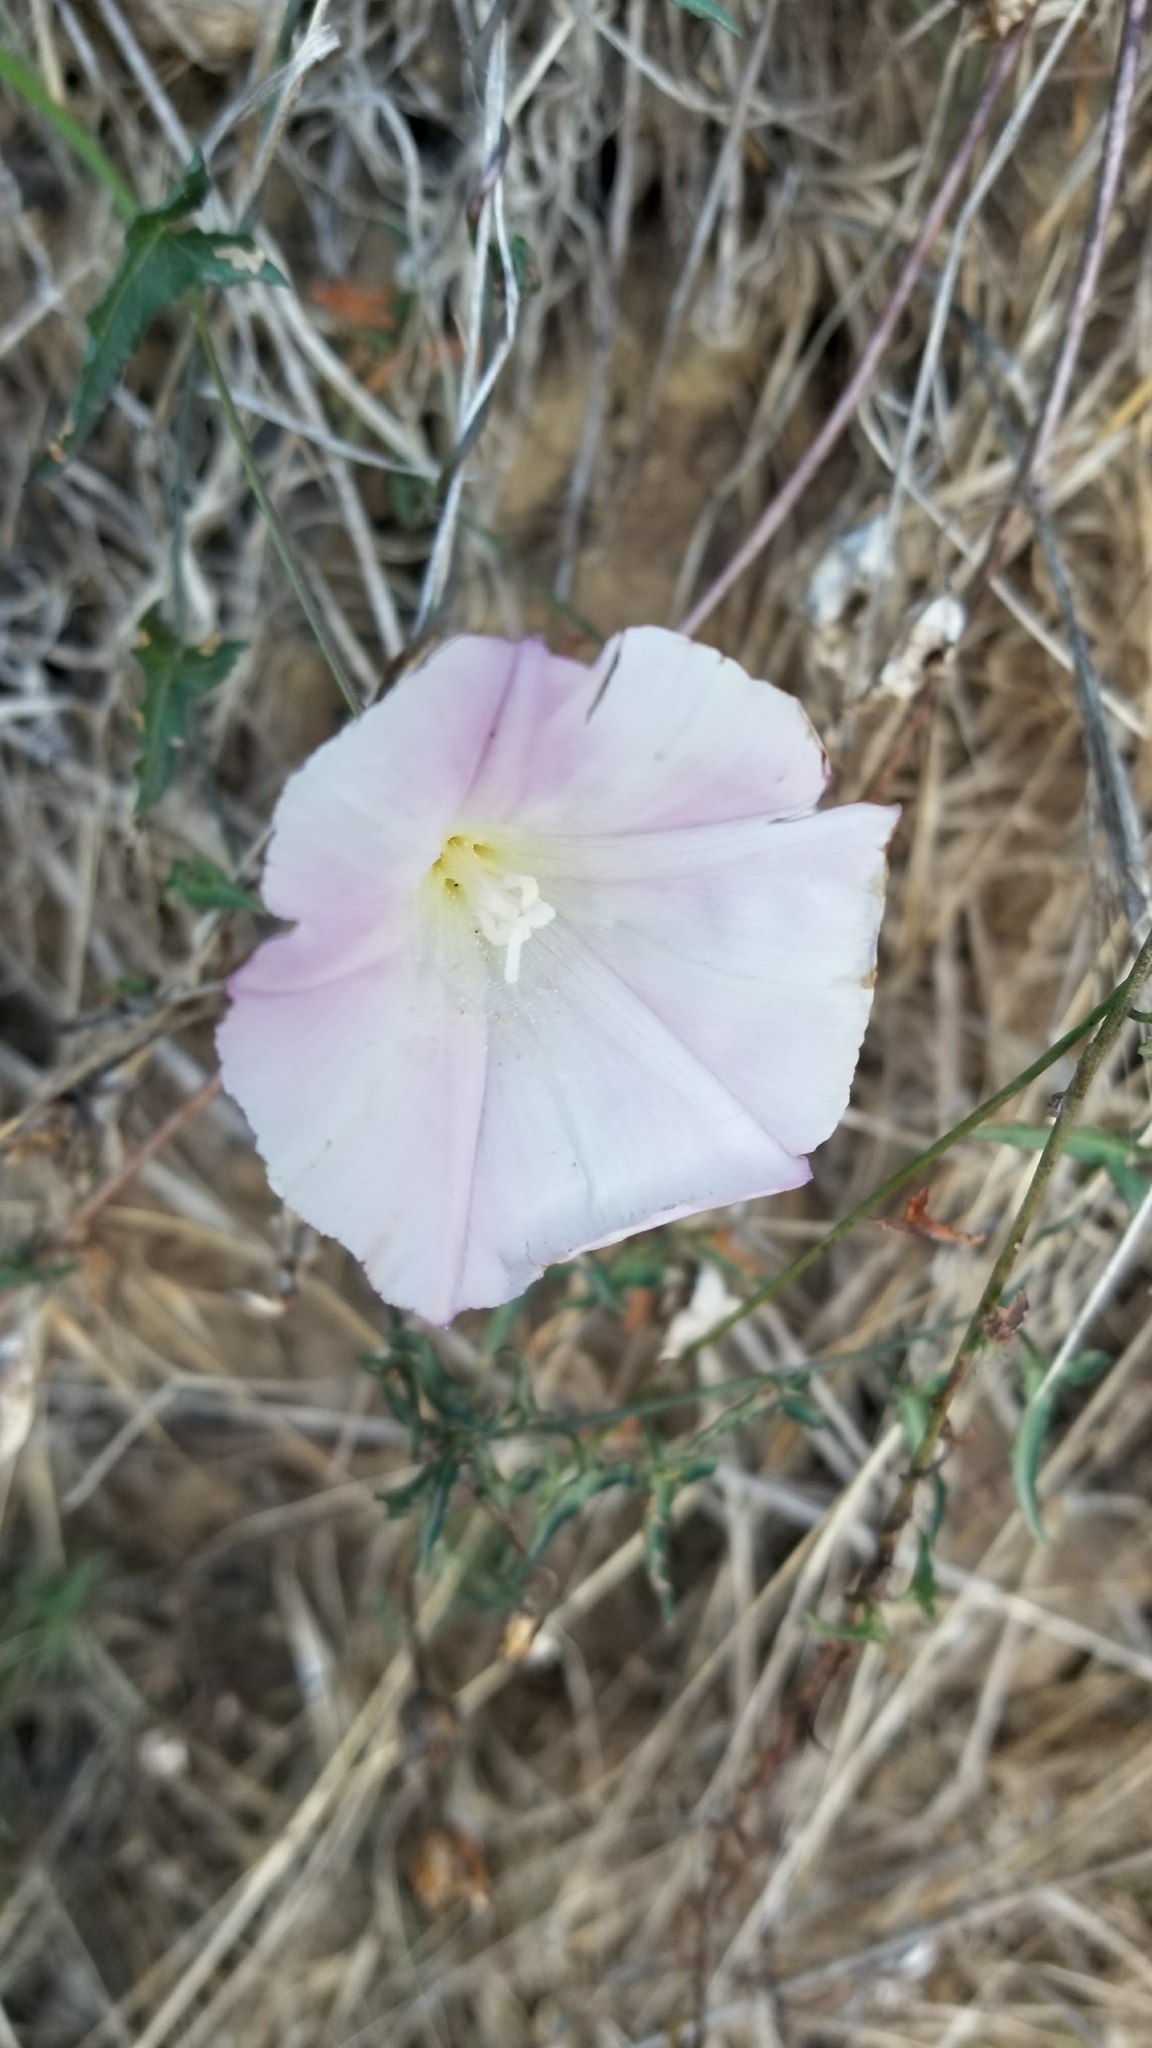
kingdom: Plantae
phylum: Tracheophyta
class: Magnoliopsida
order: Solanales
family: Convolvulaceae
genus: Calystegia
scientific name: Calystegia macrostegia
